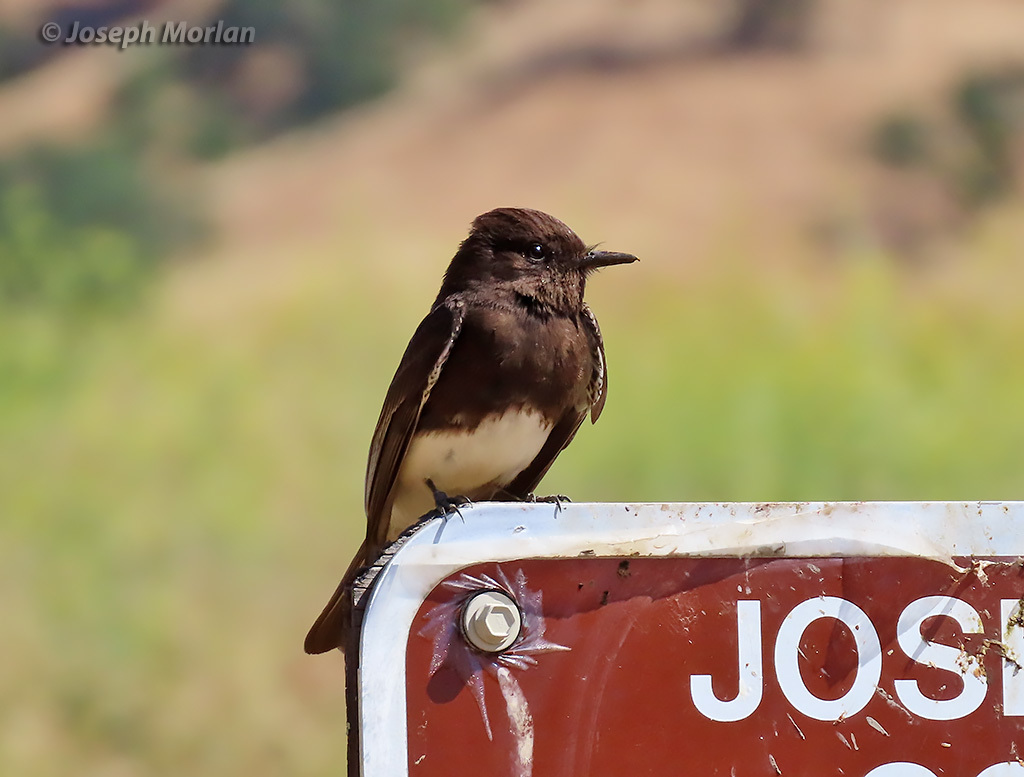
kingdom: Animalia
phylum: Chordata
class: Aves
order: Passeriformes
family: Tyrannidae
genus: Sayornis
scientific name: Sayornis nigricans
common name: Black phoebe
